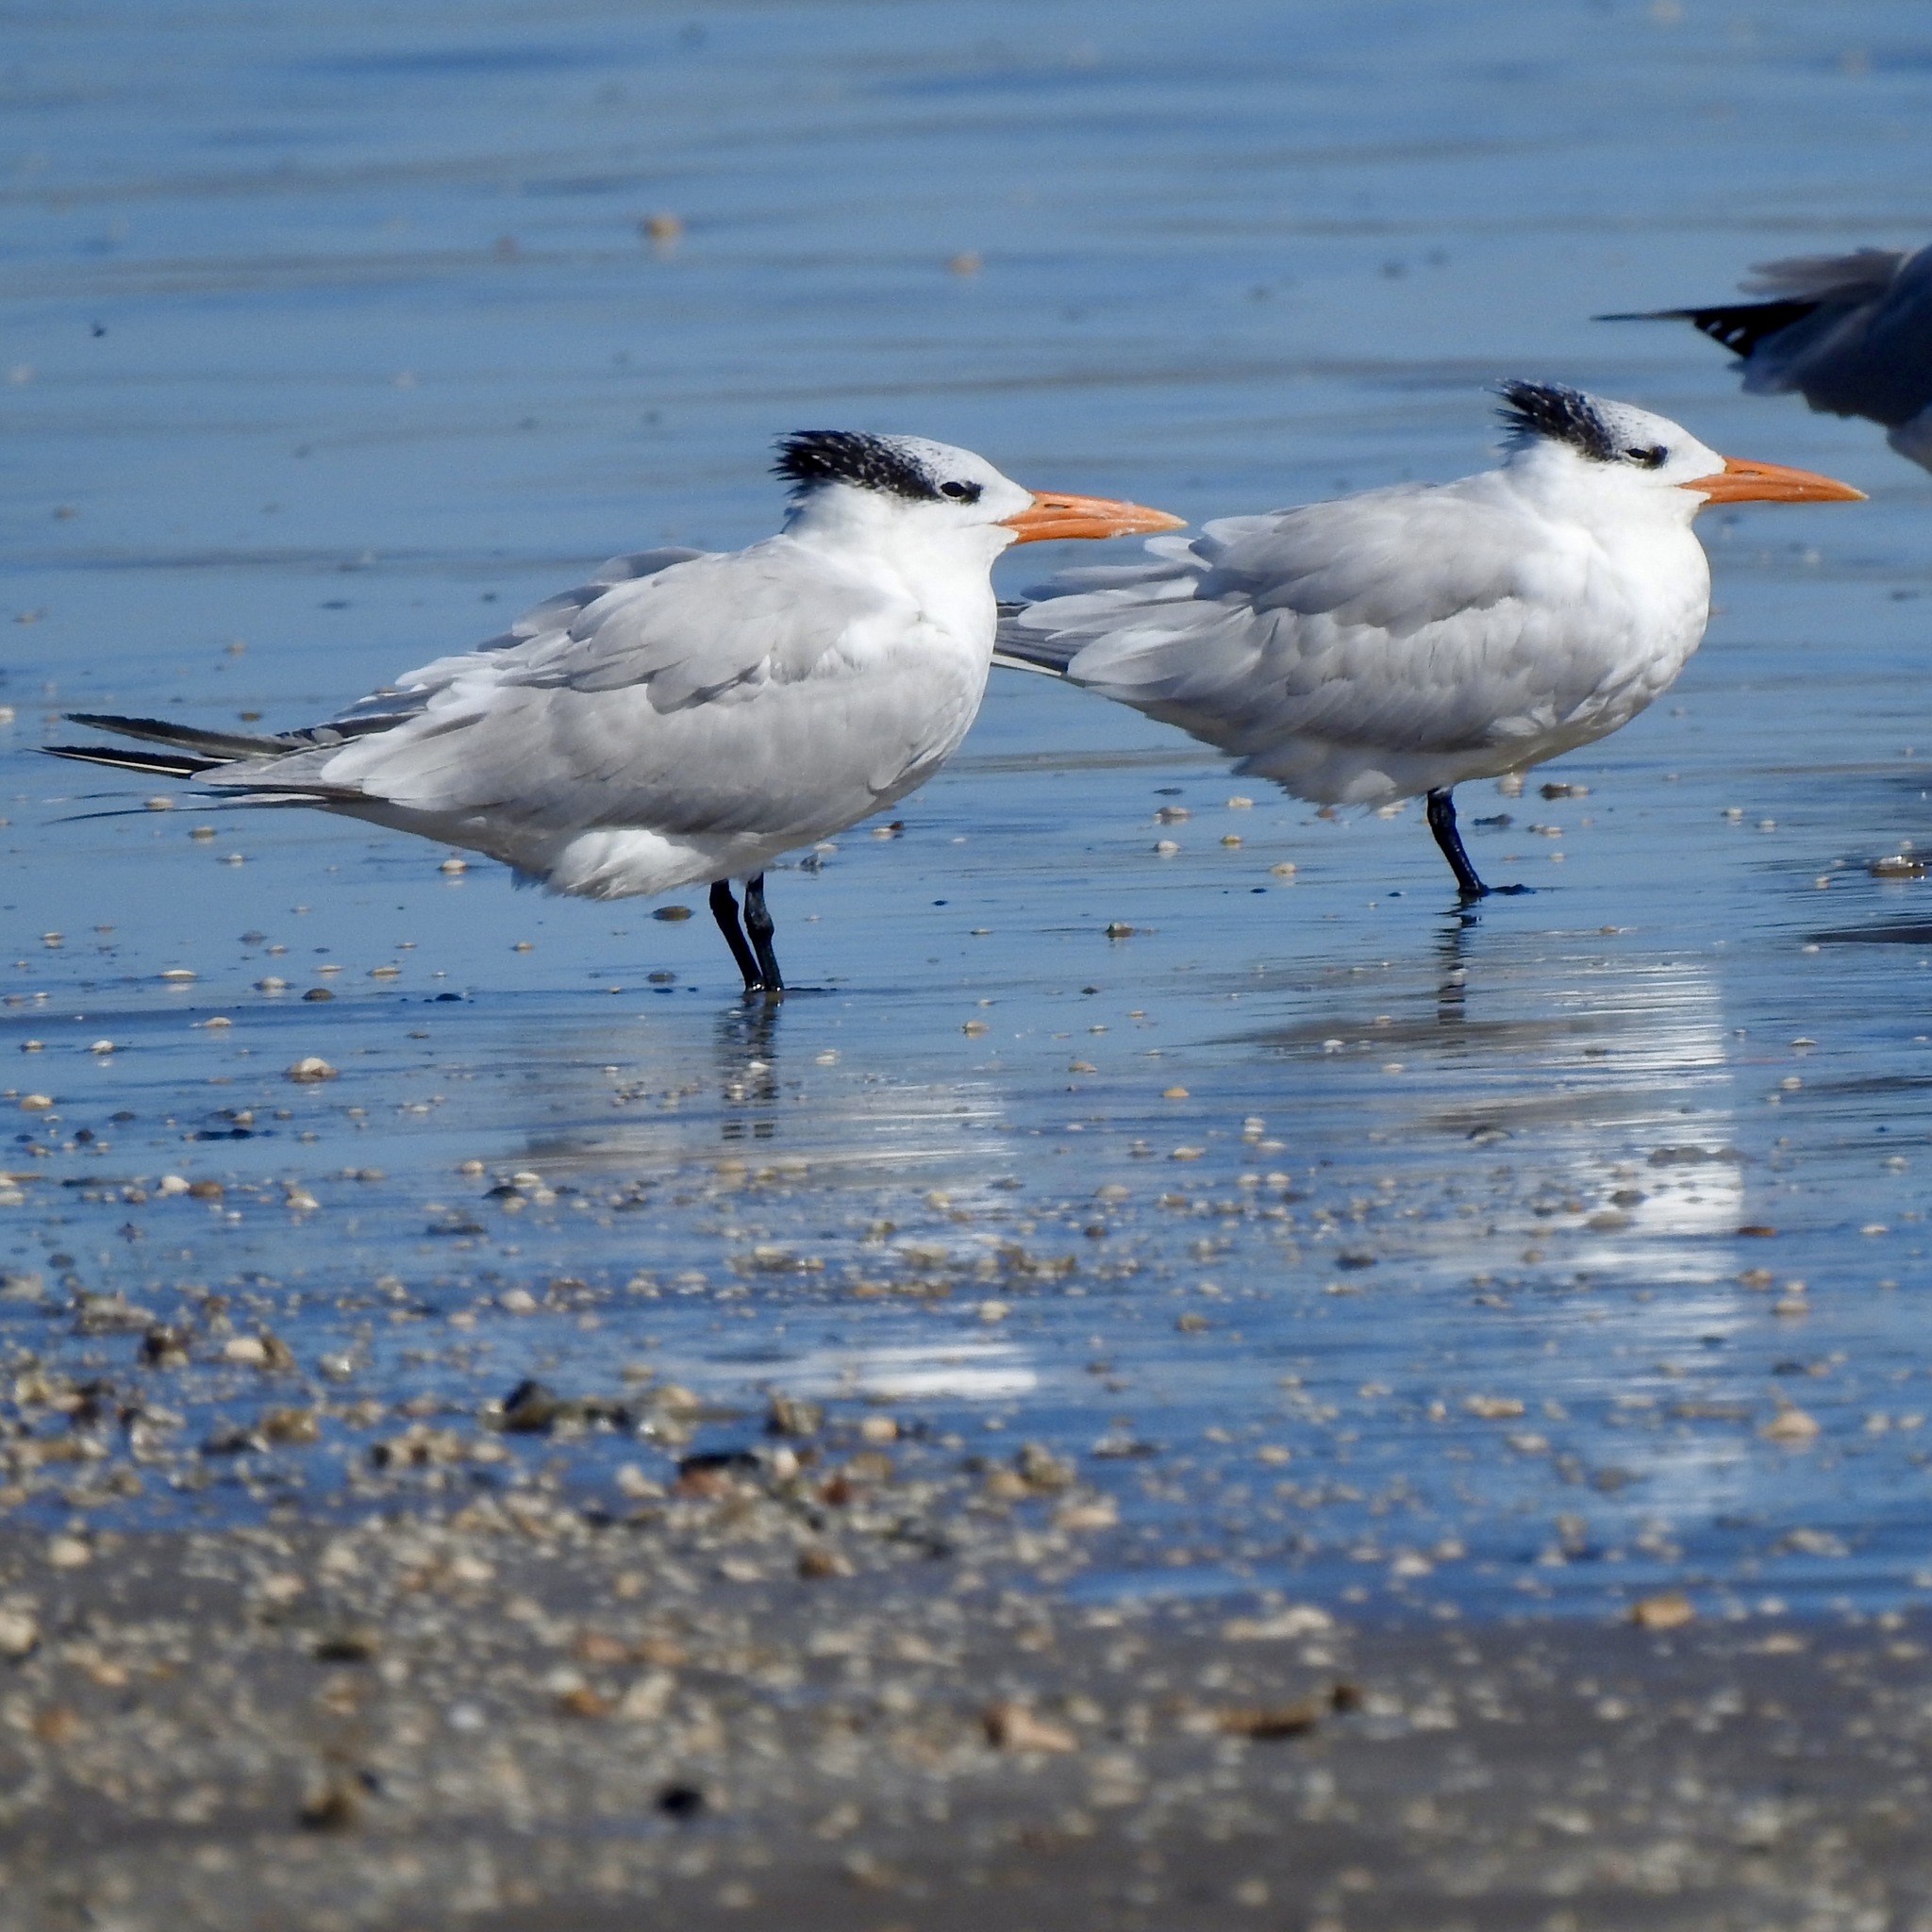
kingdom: Animalia
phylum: Chordata
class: Aves
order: Charadriiformes
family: Laridae
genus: Thalasseus
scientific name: Thalasseus maximus
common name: Royal tern
